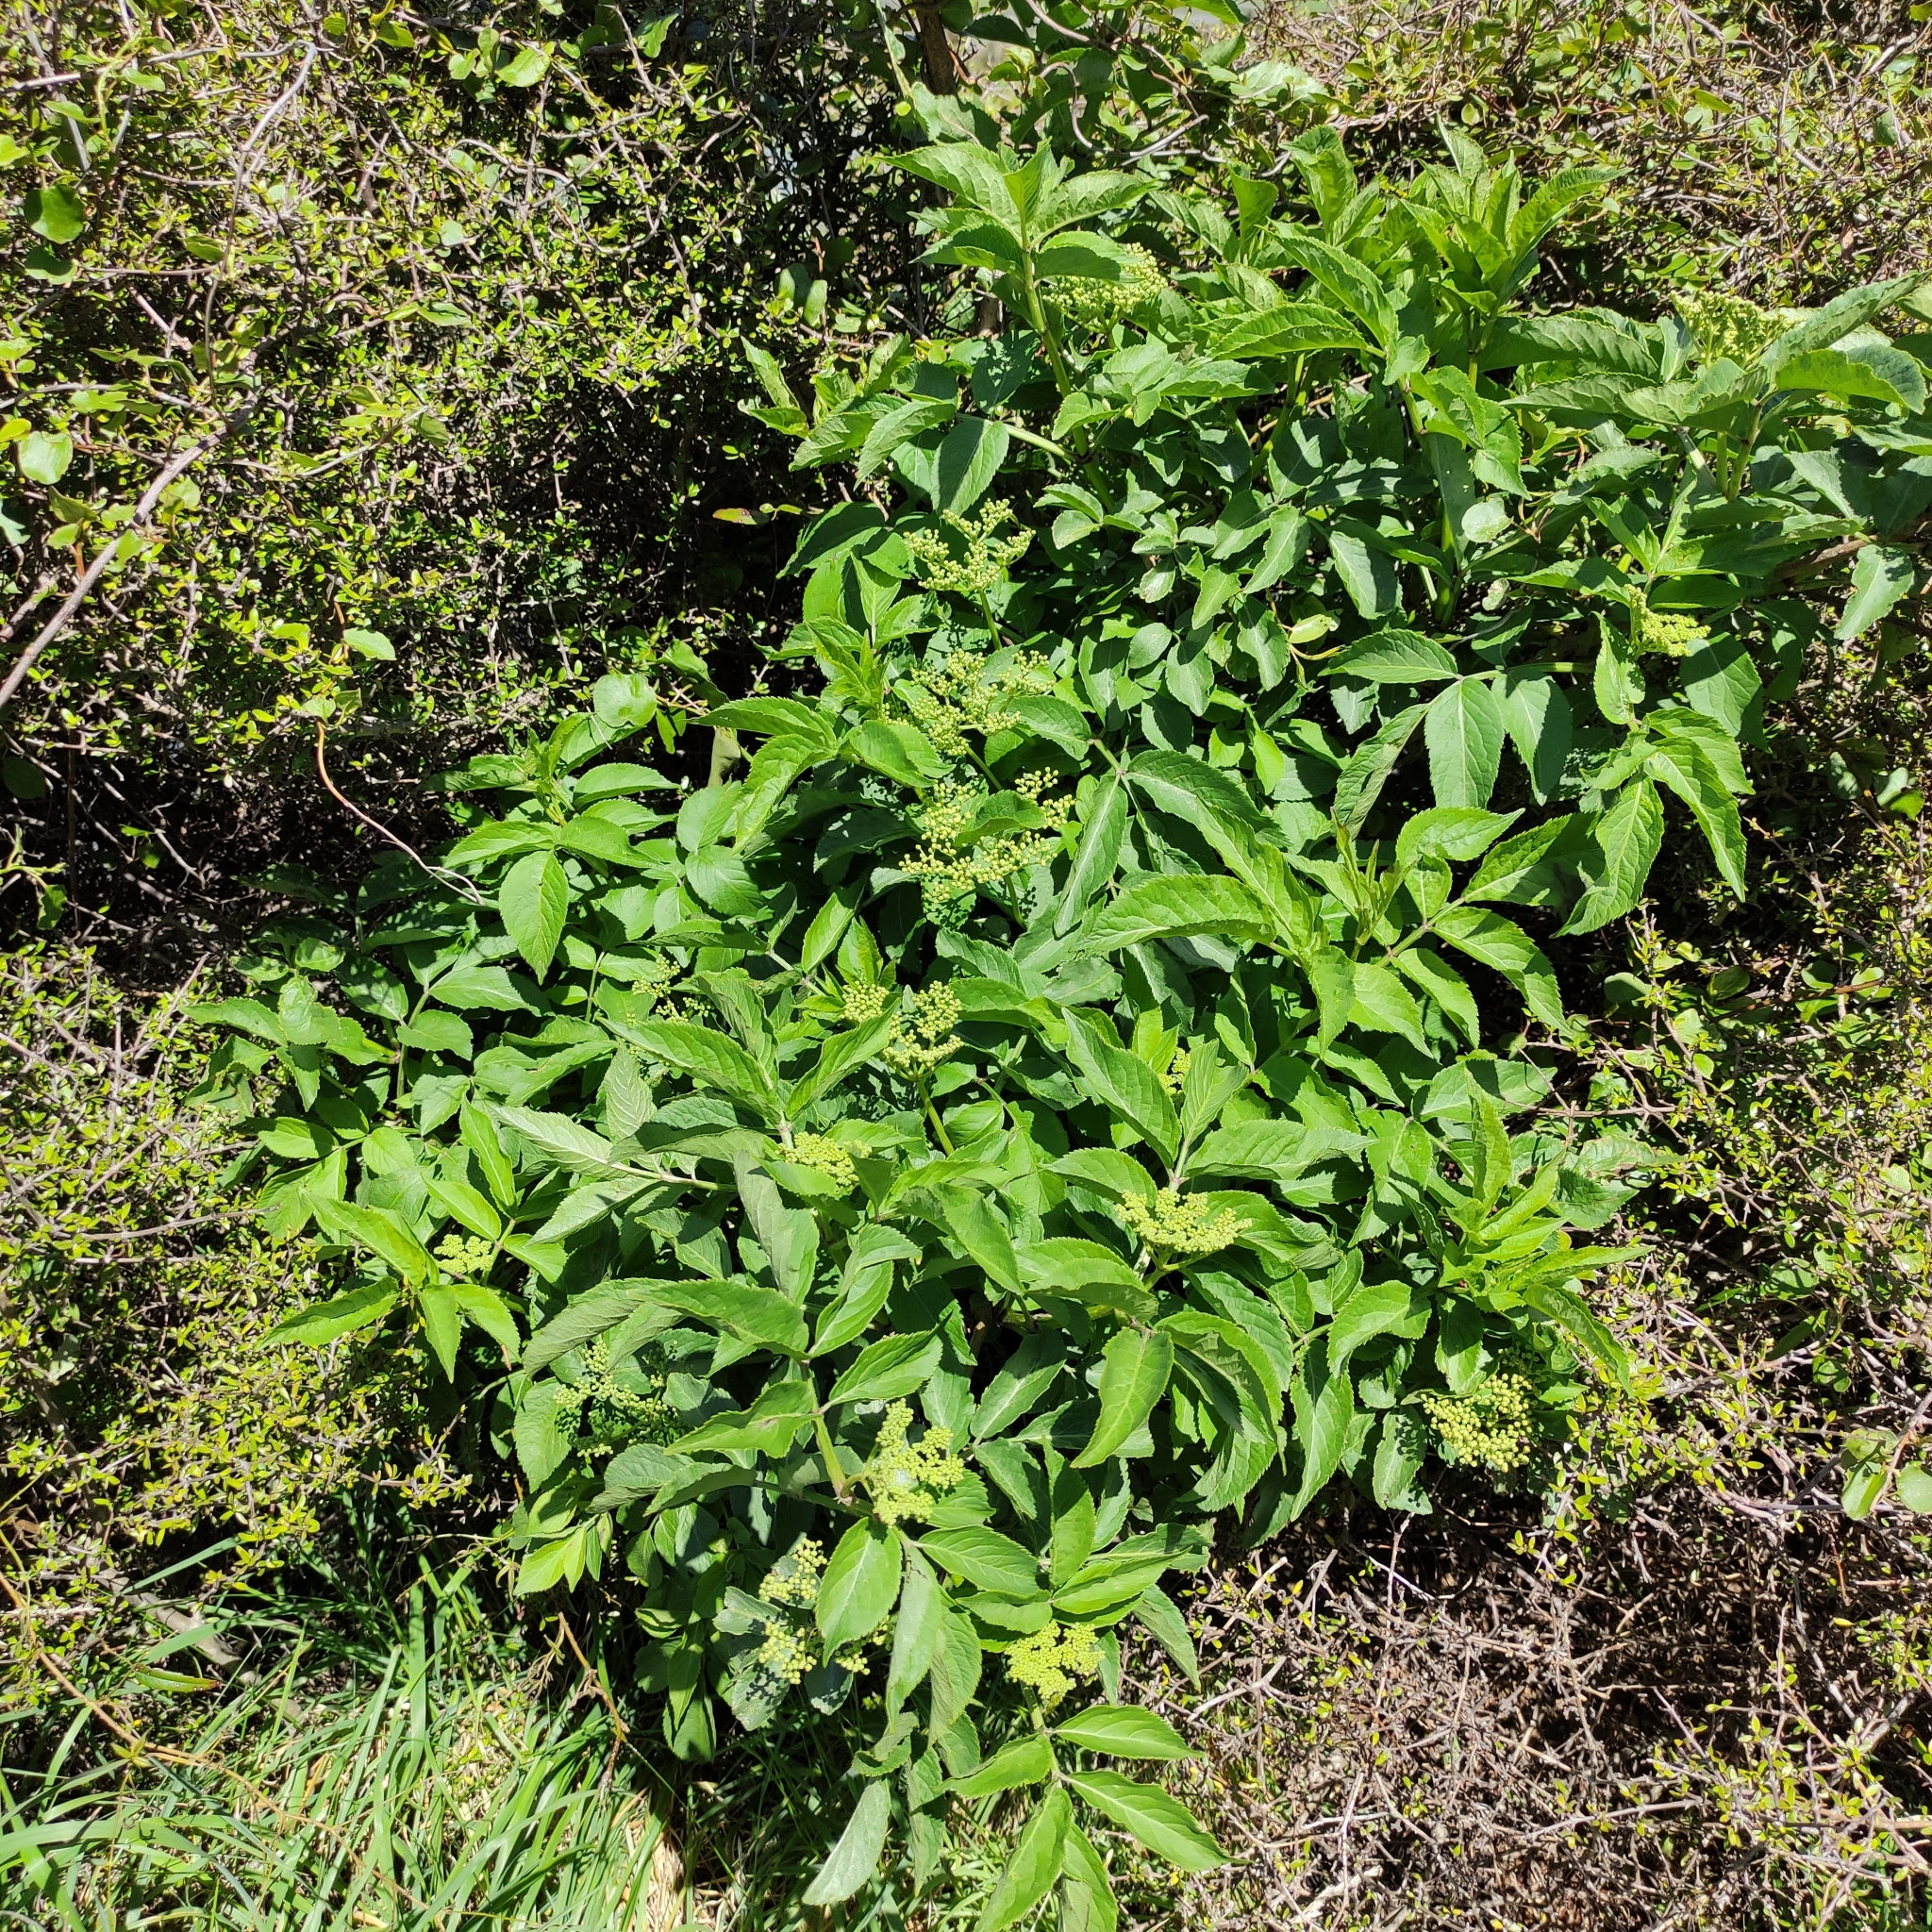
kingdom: Plantae
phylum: Tracheophyta
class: Magnoliopsida
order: Dipsacales
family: Viburnaceae
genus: Sambucus
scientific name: Sambucus nigra
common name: Elder
